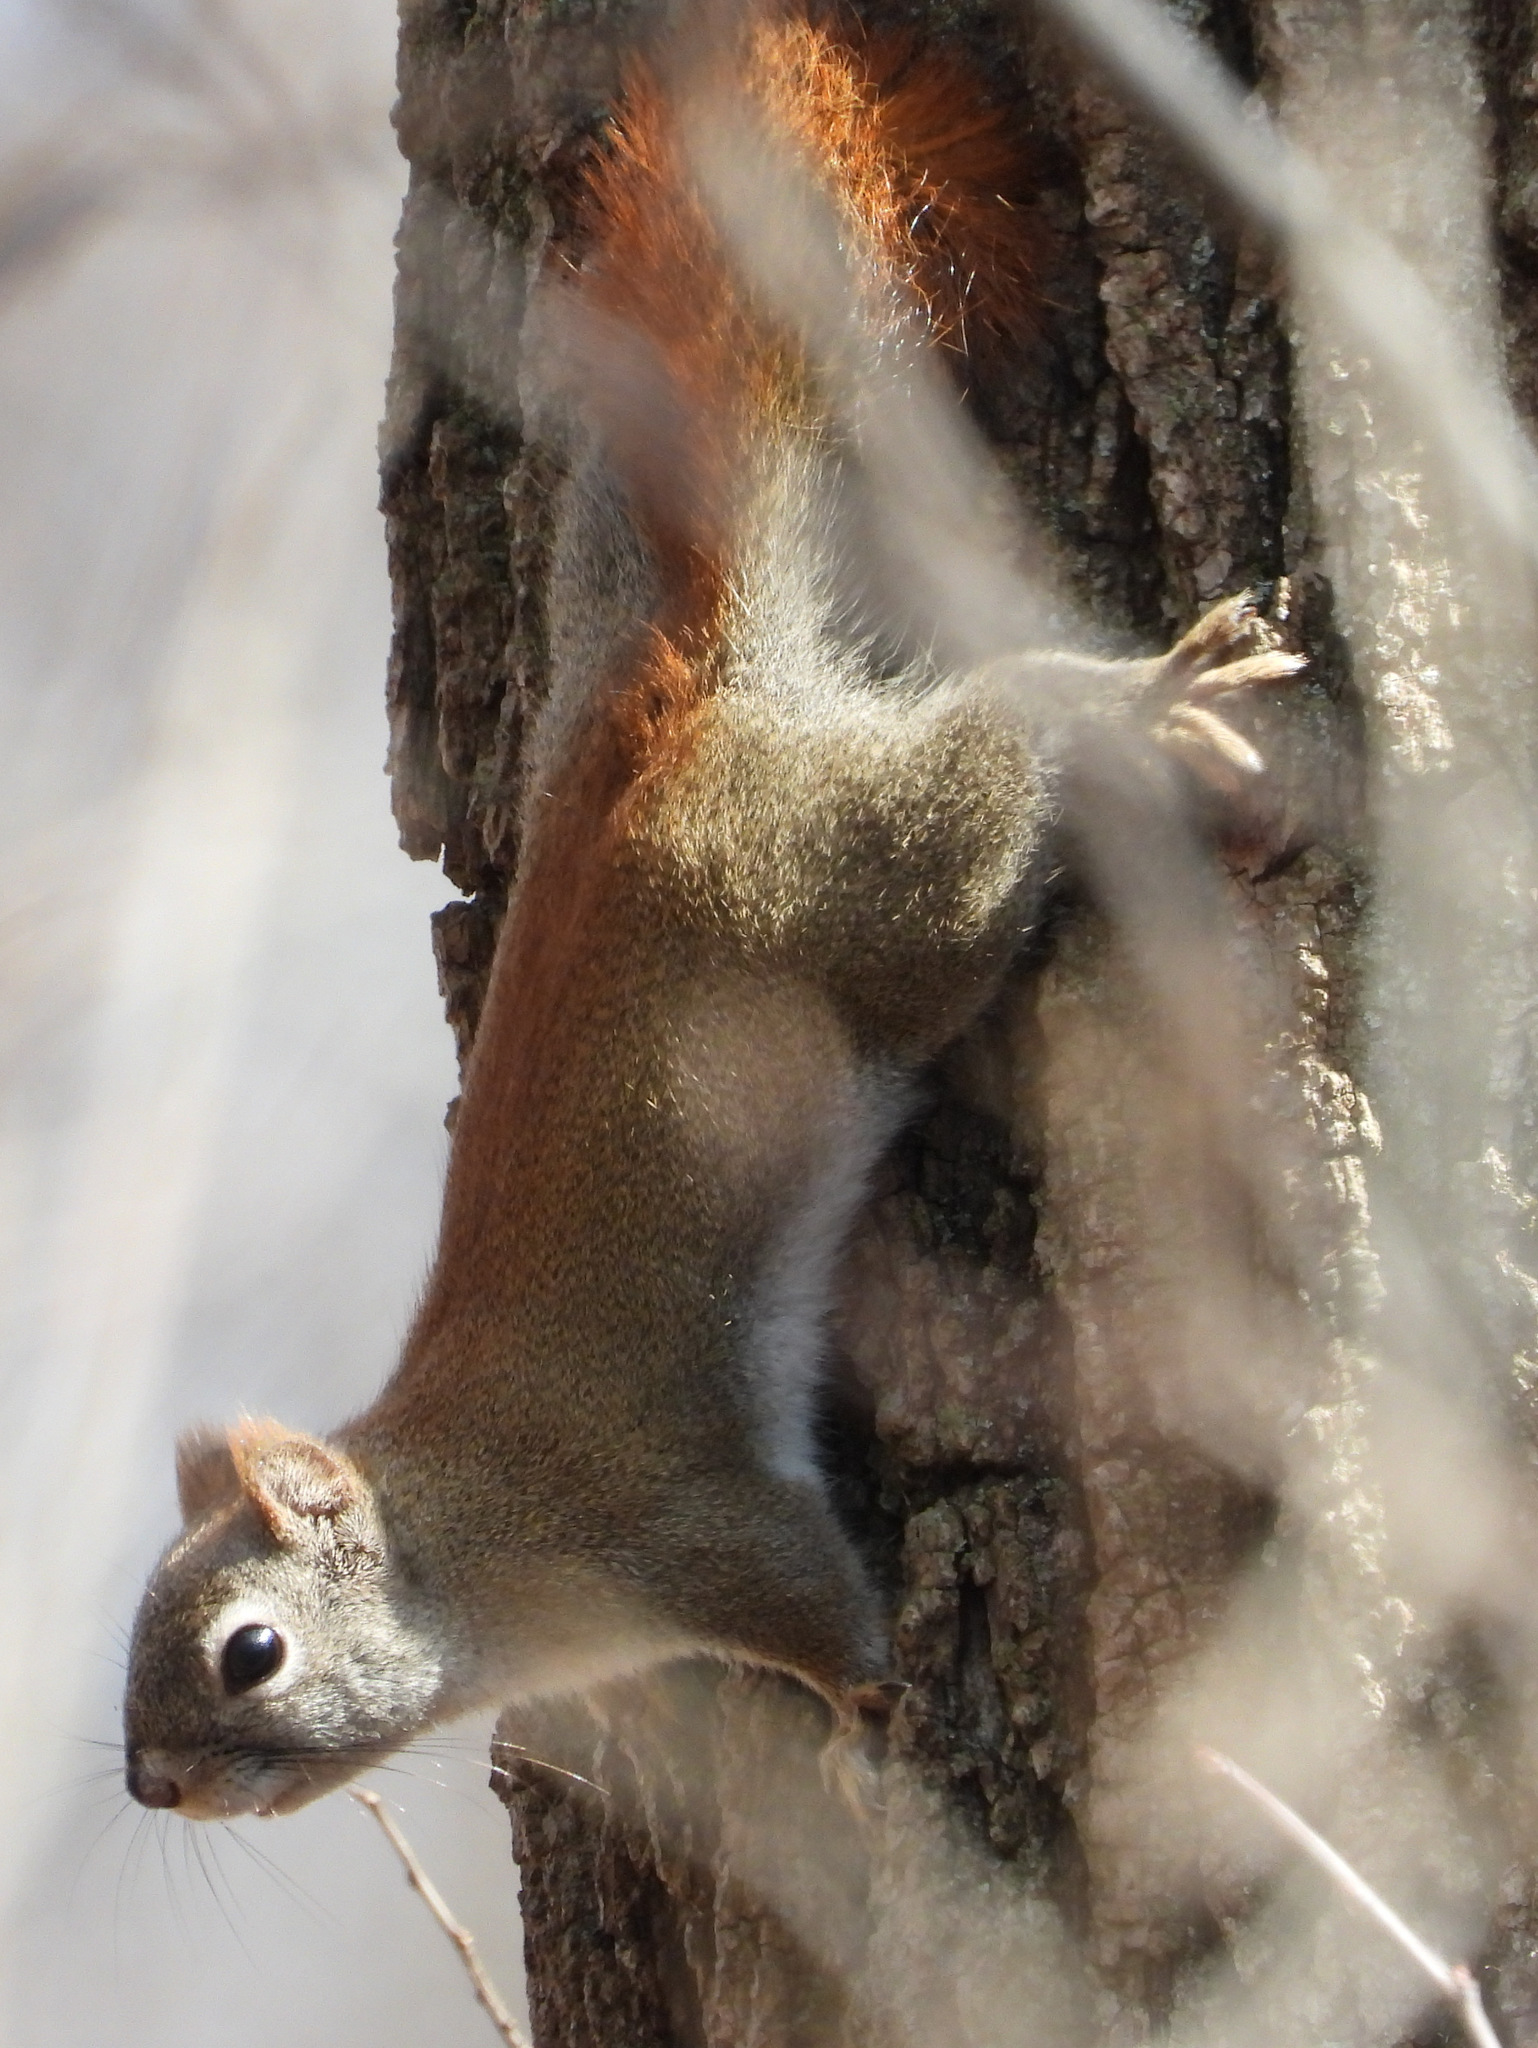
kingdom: Animalia
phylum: Chordata
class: Mammalia
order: Rodentia
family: Sciuridae
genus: Tamiasciurus
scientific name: Tamiasciurus hudsonicus
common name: Red squirrel
